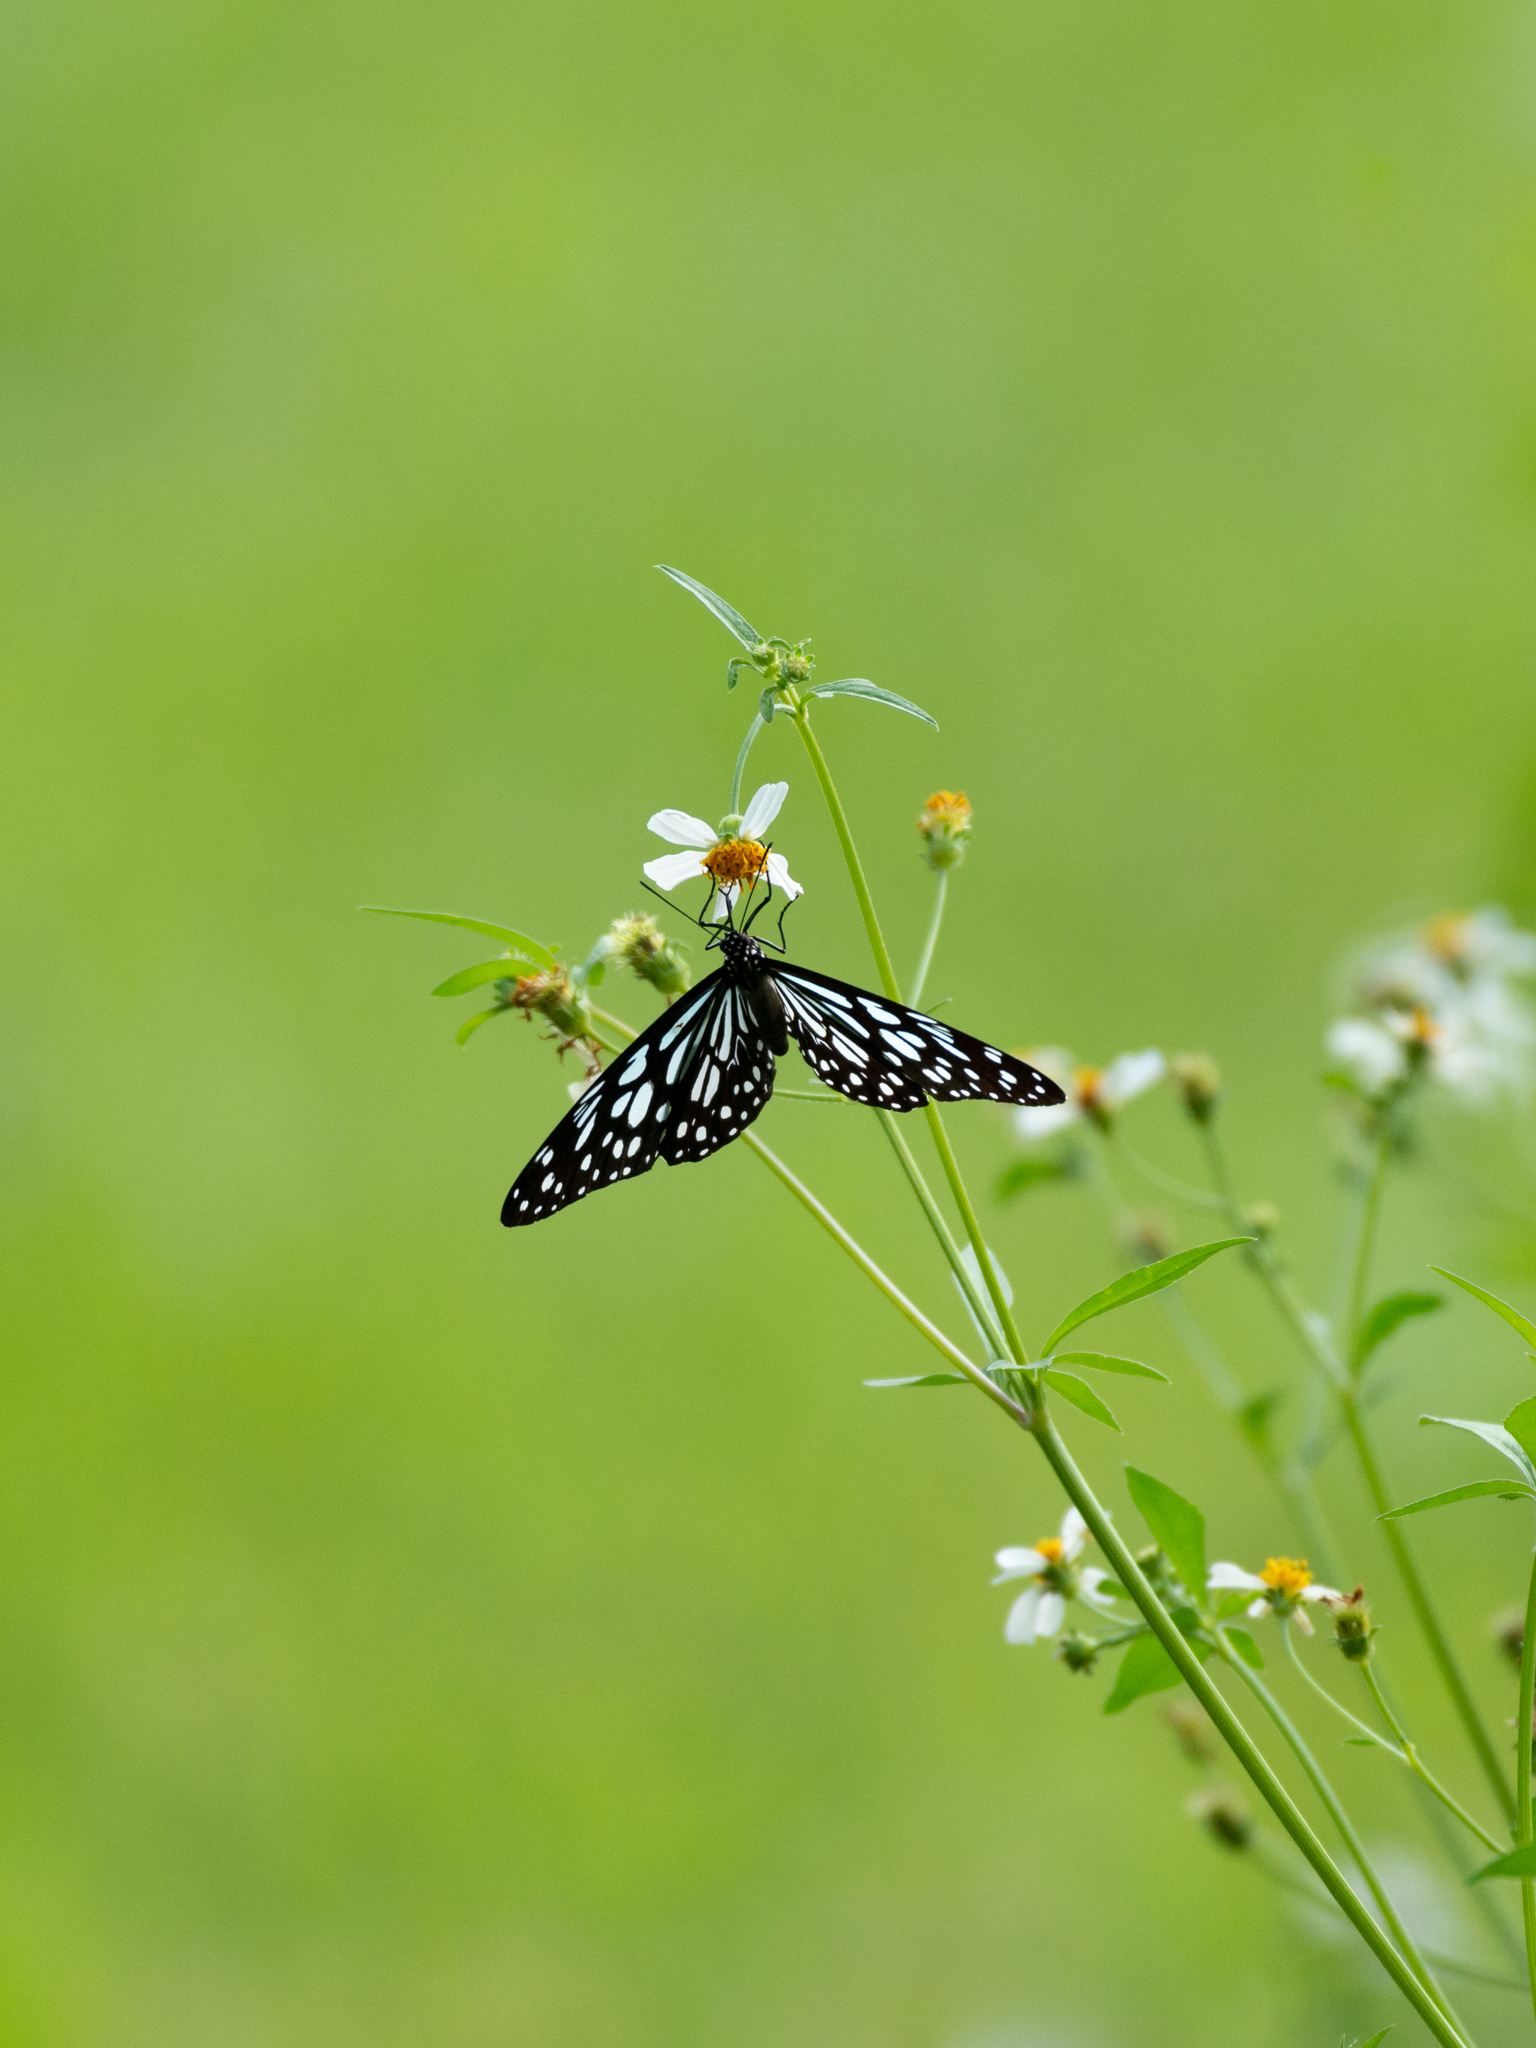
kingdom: Animalia
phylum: Arthropoda
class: Insecta
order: Lepidoptera
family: Nymphalidae
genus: Tirumala
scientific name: Tirumala limniace
